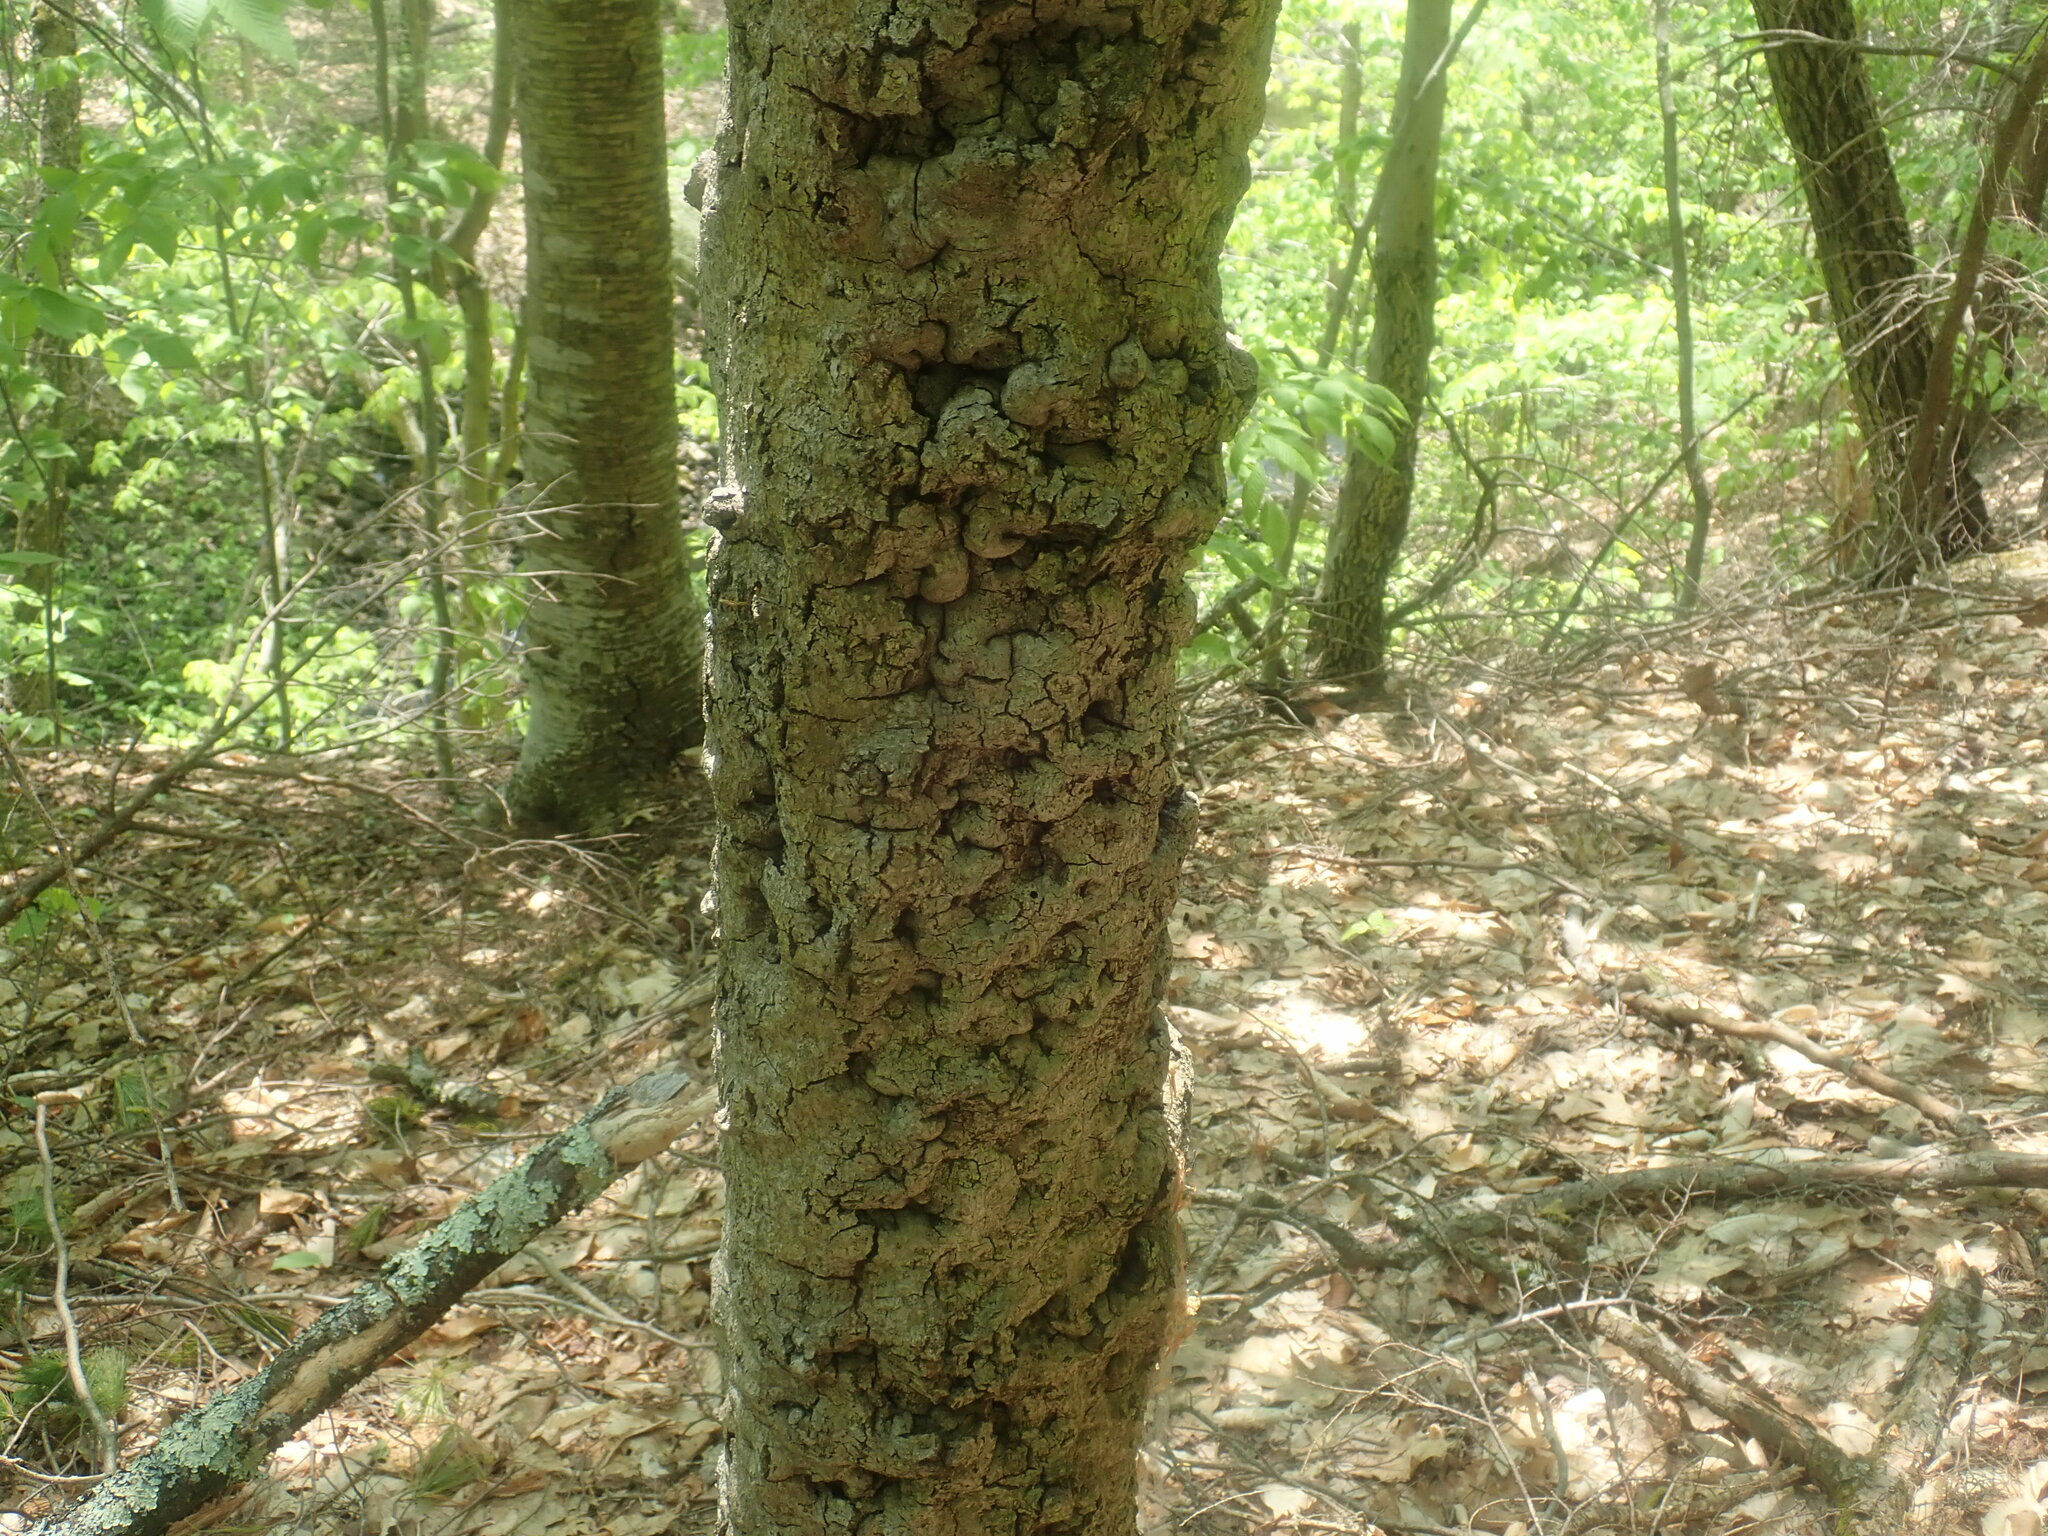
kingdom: Fungi
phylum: Ascomycota
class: Sordariomycetes
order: Hypocreales
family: Nectriaceae
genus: Neonectria
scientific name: Neonectria faginata
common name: Beech bark canker
